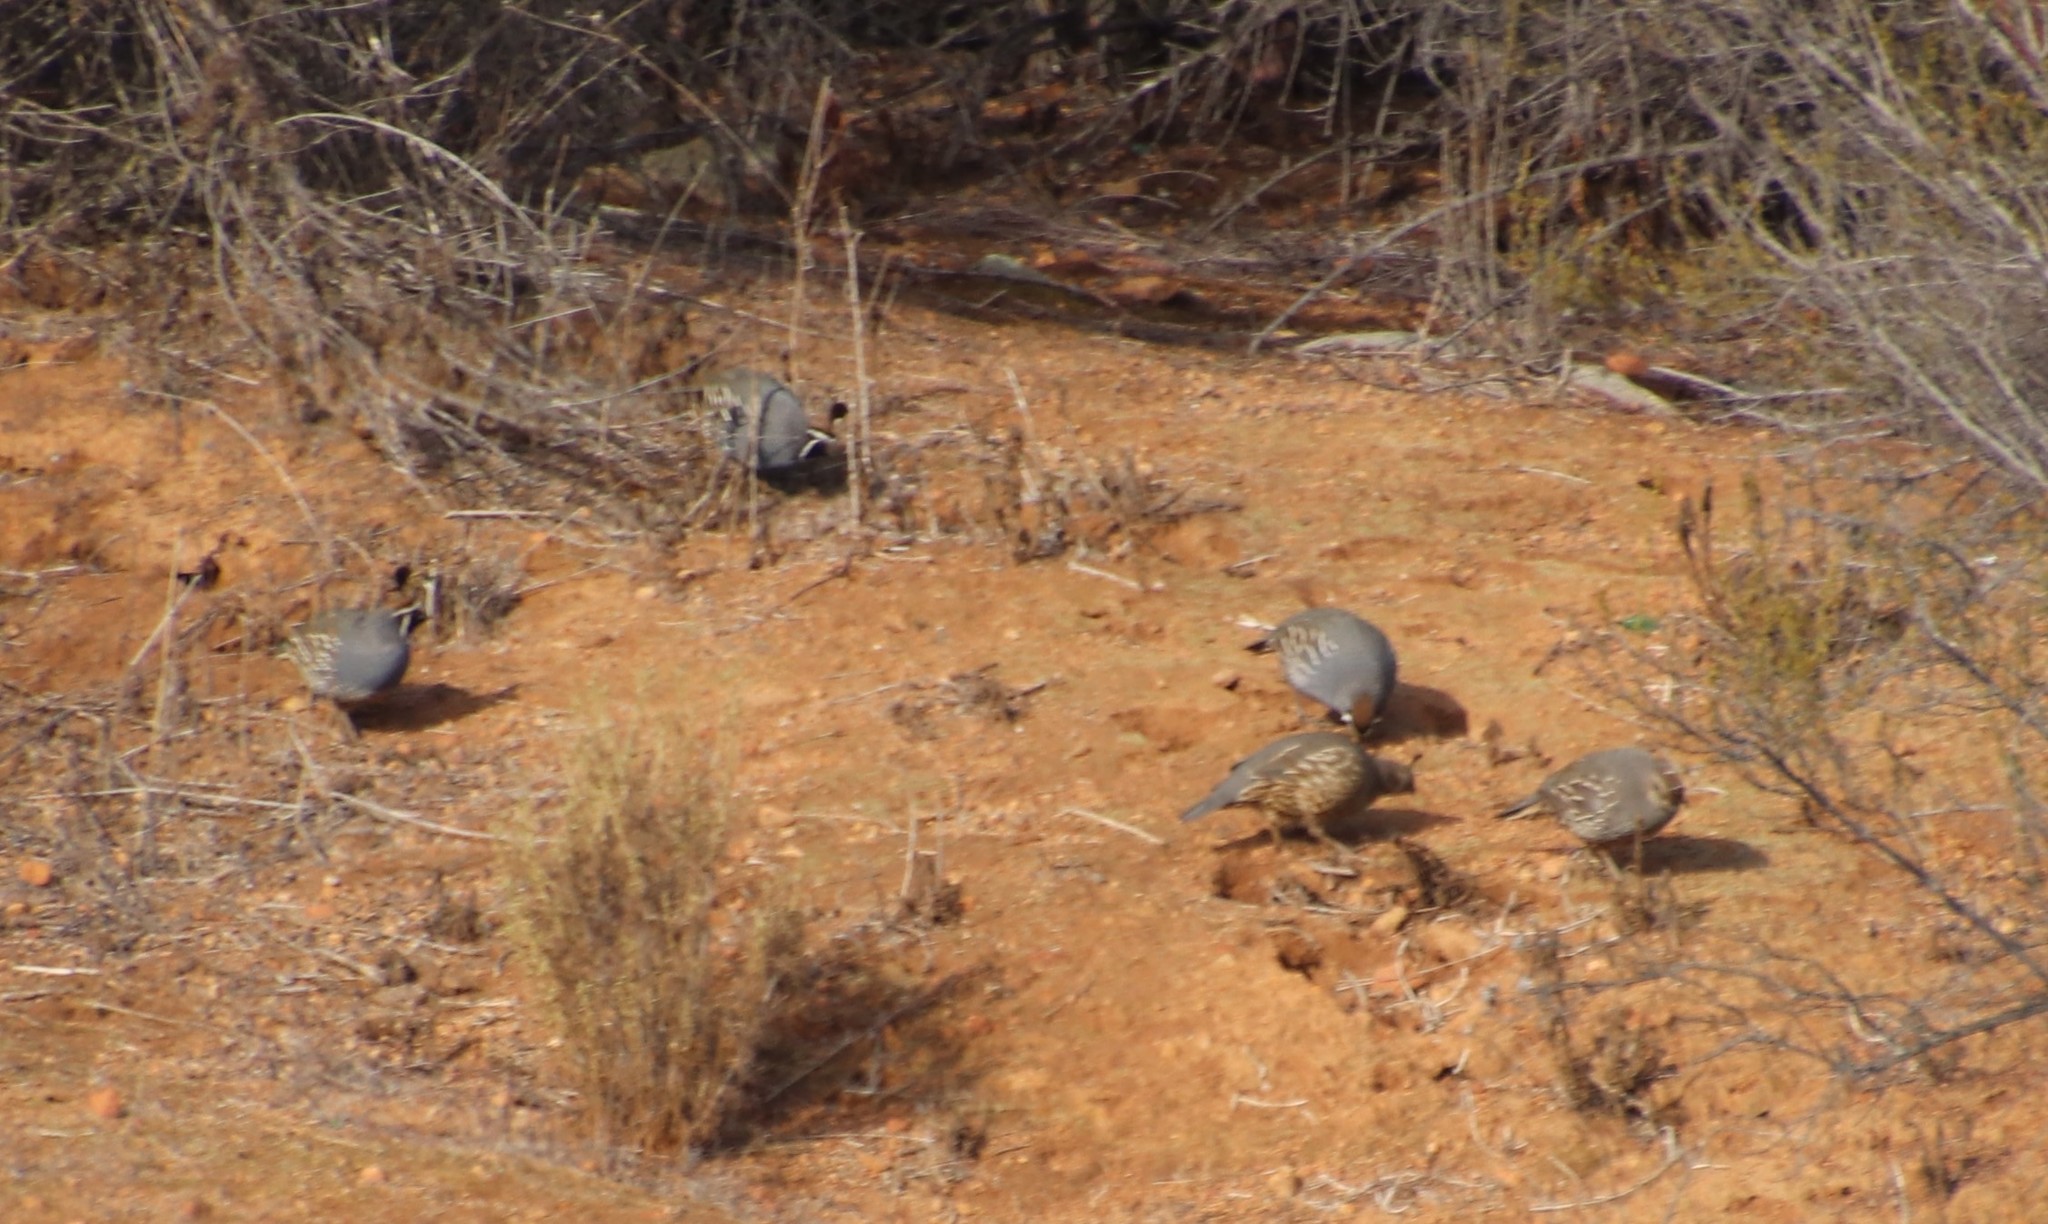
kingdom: Animalia
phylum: Chordata
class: Aves
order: Galliformes
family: Odontophoridae
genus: Callipepla
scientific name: Callipepla californica
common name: California quail
